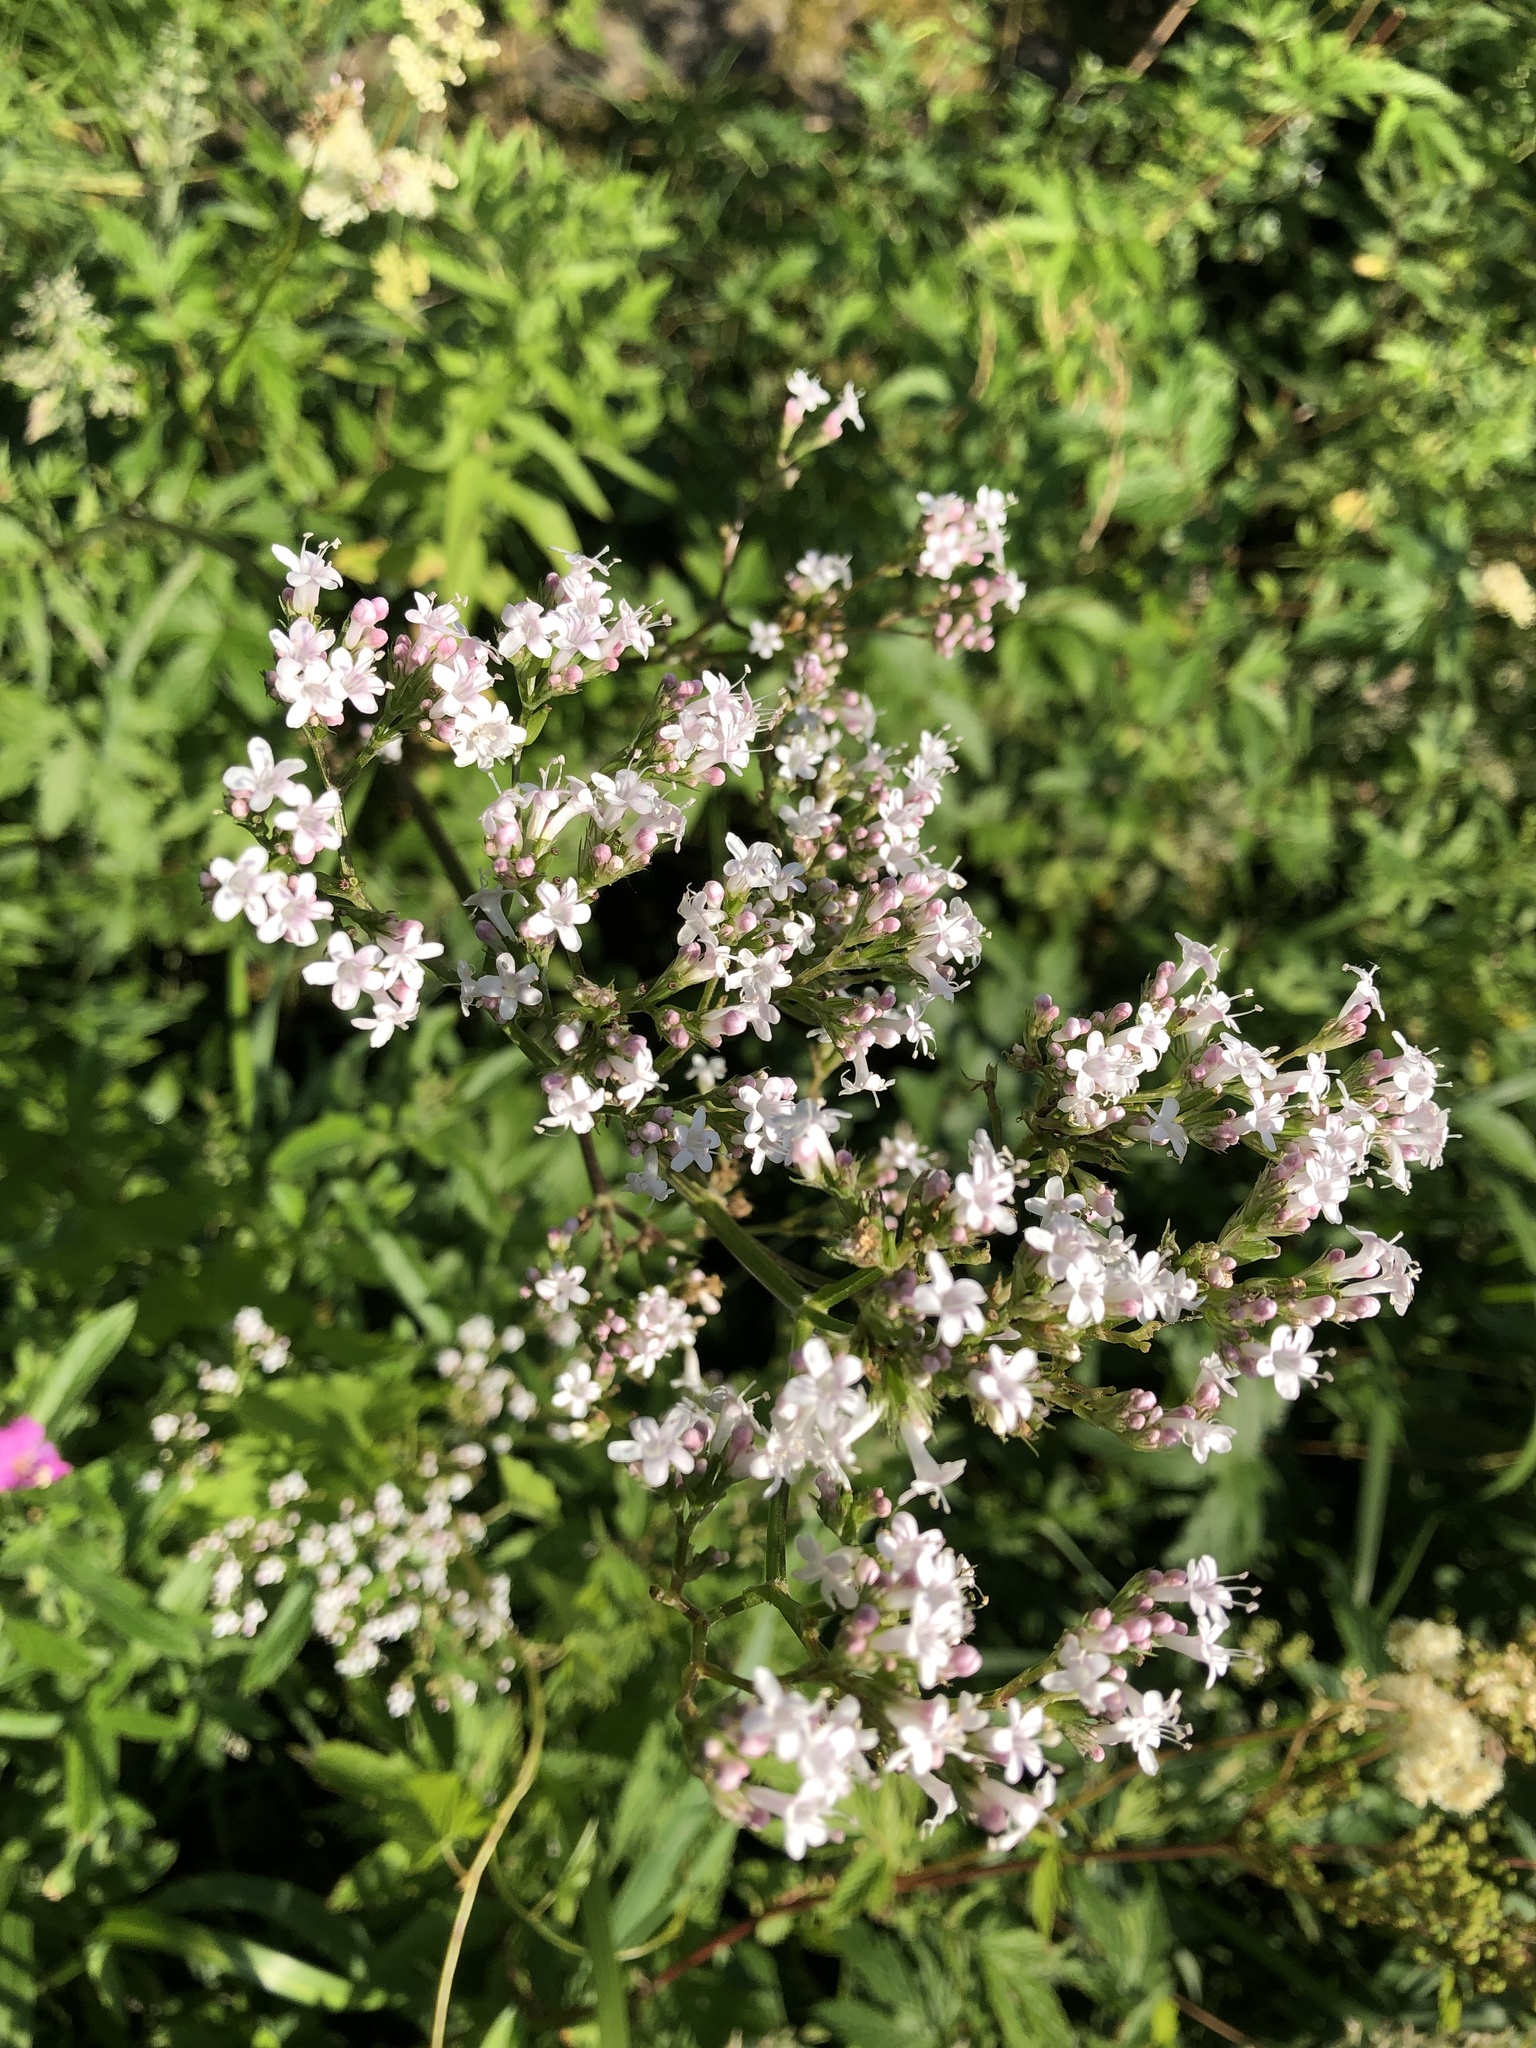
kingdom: Plantae
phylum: Tracheophyta
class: Magnoliopsida
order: Dipsacales
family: Caprifoliaceae
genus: Valeriana
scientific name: Valeriana officinalis
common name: Common valerian
